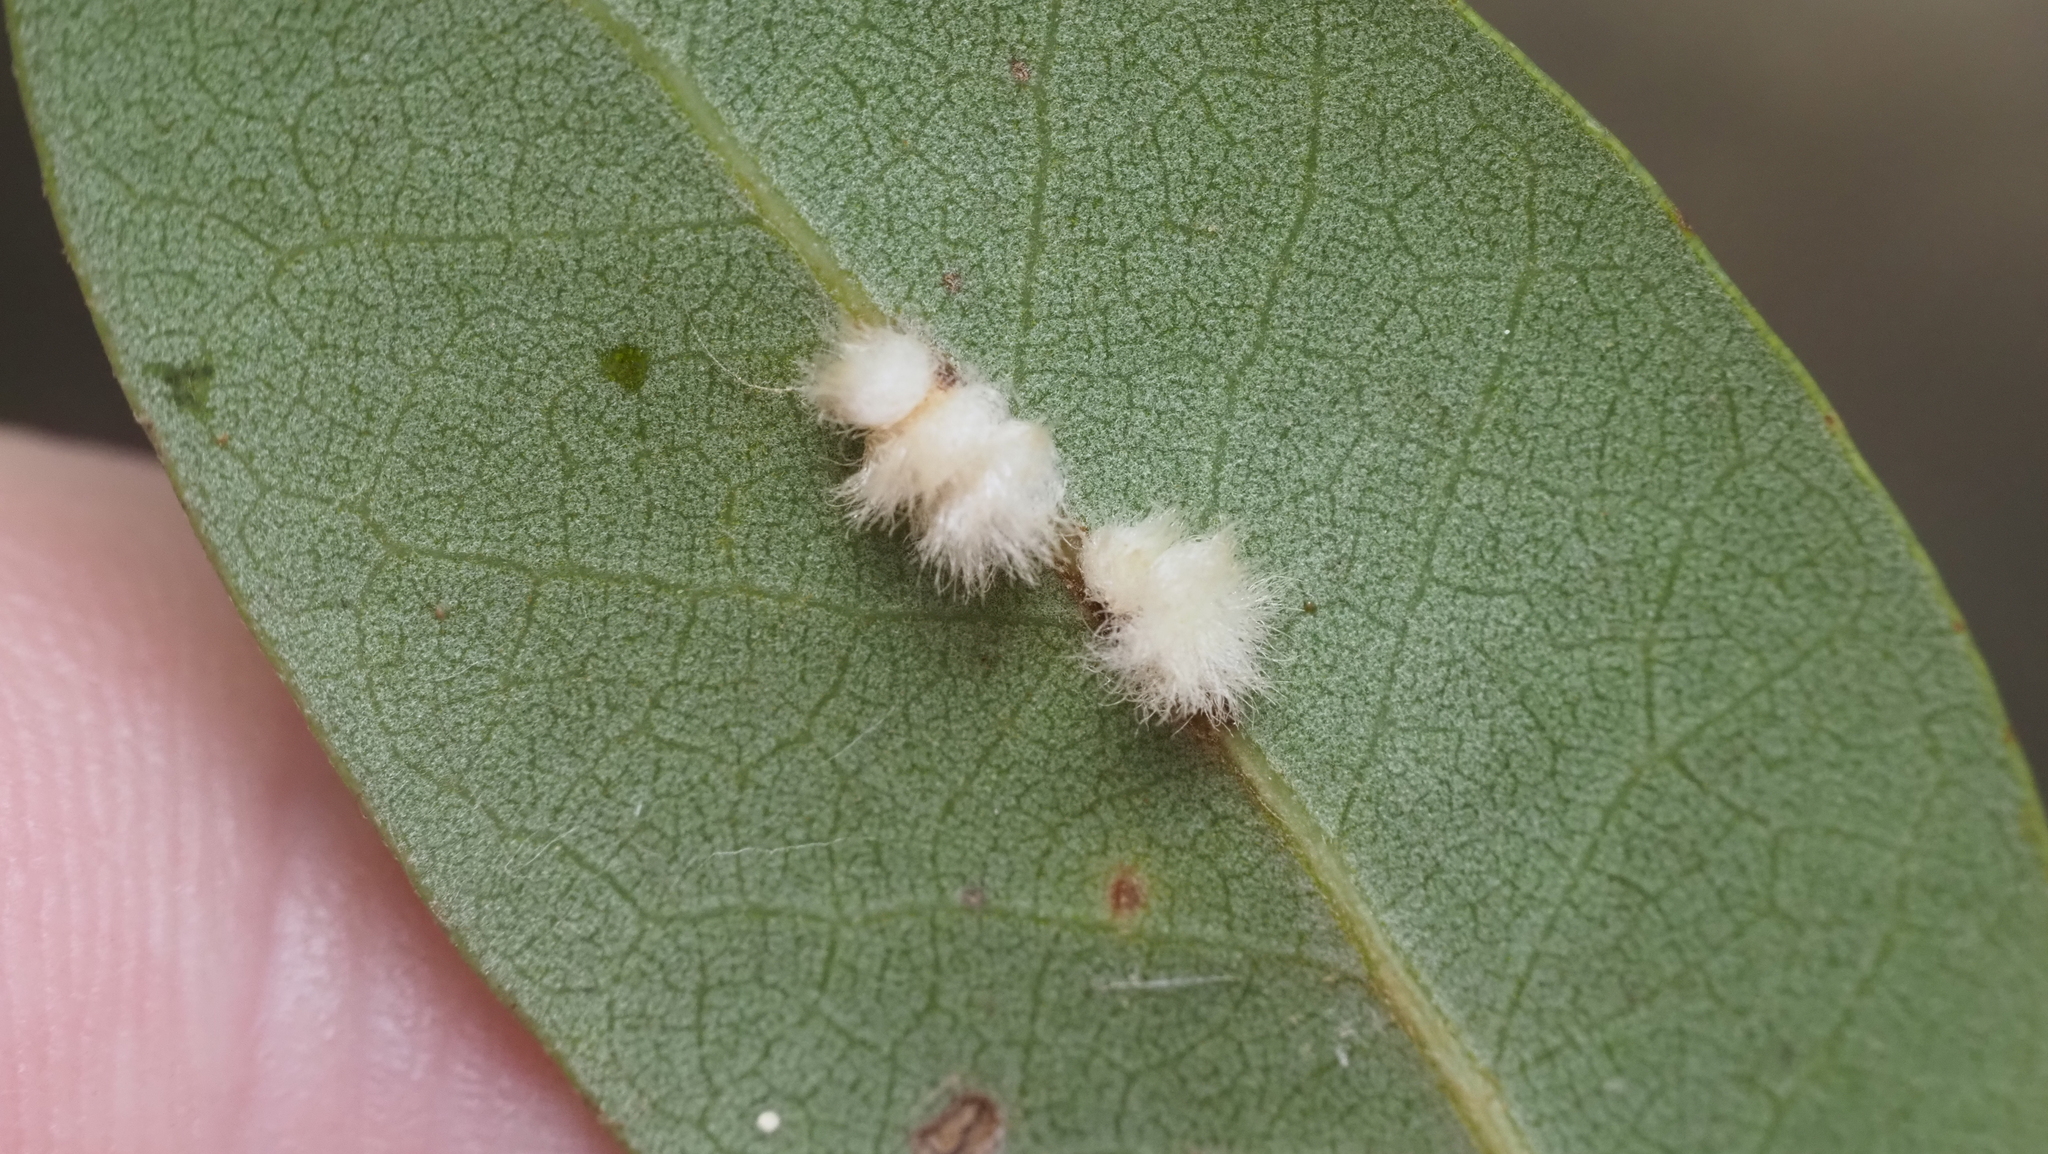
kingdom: Animalia
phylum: Arthropoda
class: Insecta
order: Hymenoptera
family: Cynipidae
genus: Andricus
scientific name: Andricus Druon quercuslanigerum
